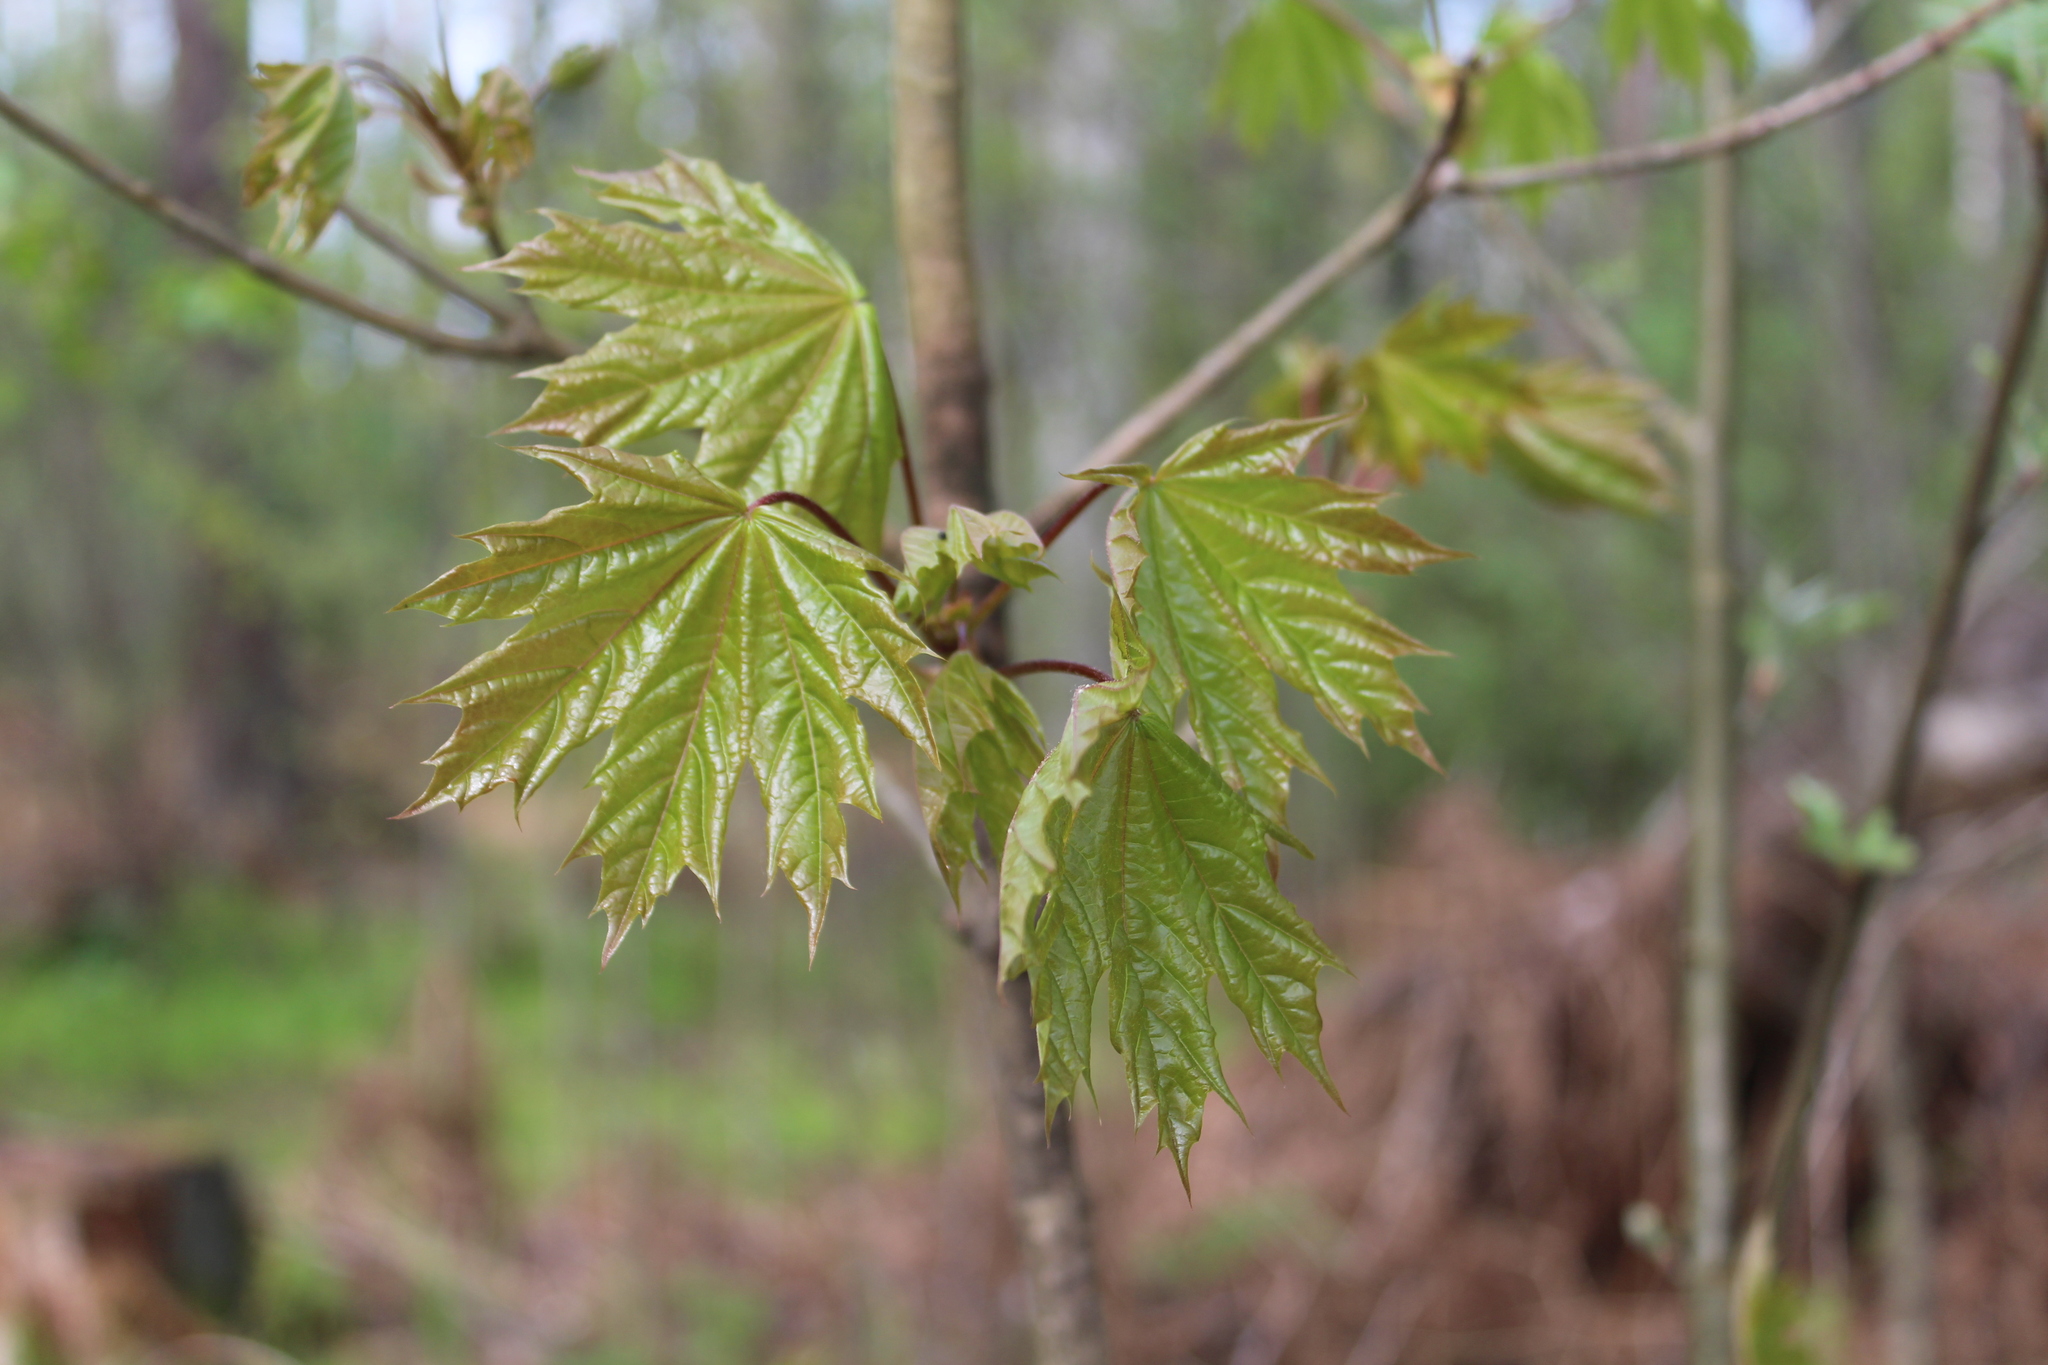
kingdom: Plantae
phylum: Tracheophyta
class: Magnoliopsida
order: Sapindales
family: Sapindaceae
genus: Acer
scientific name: Acer platanoides
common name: Norway maple
